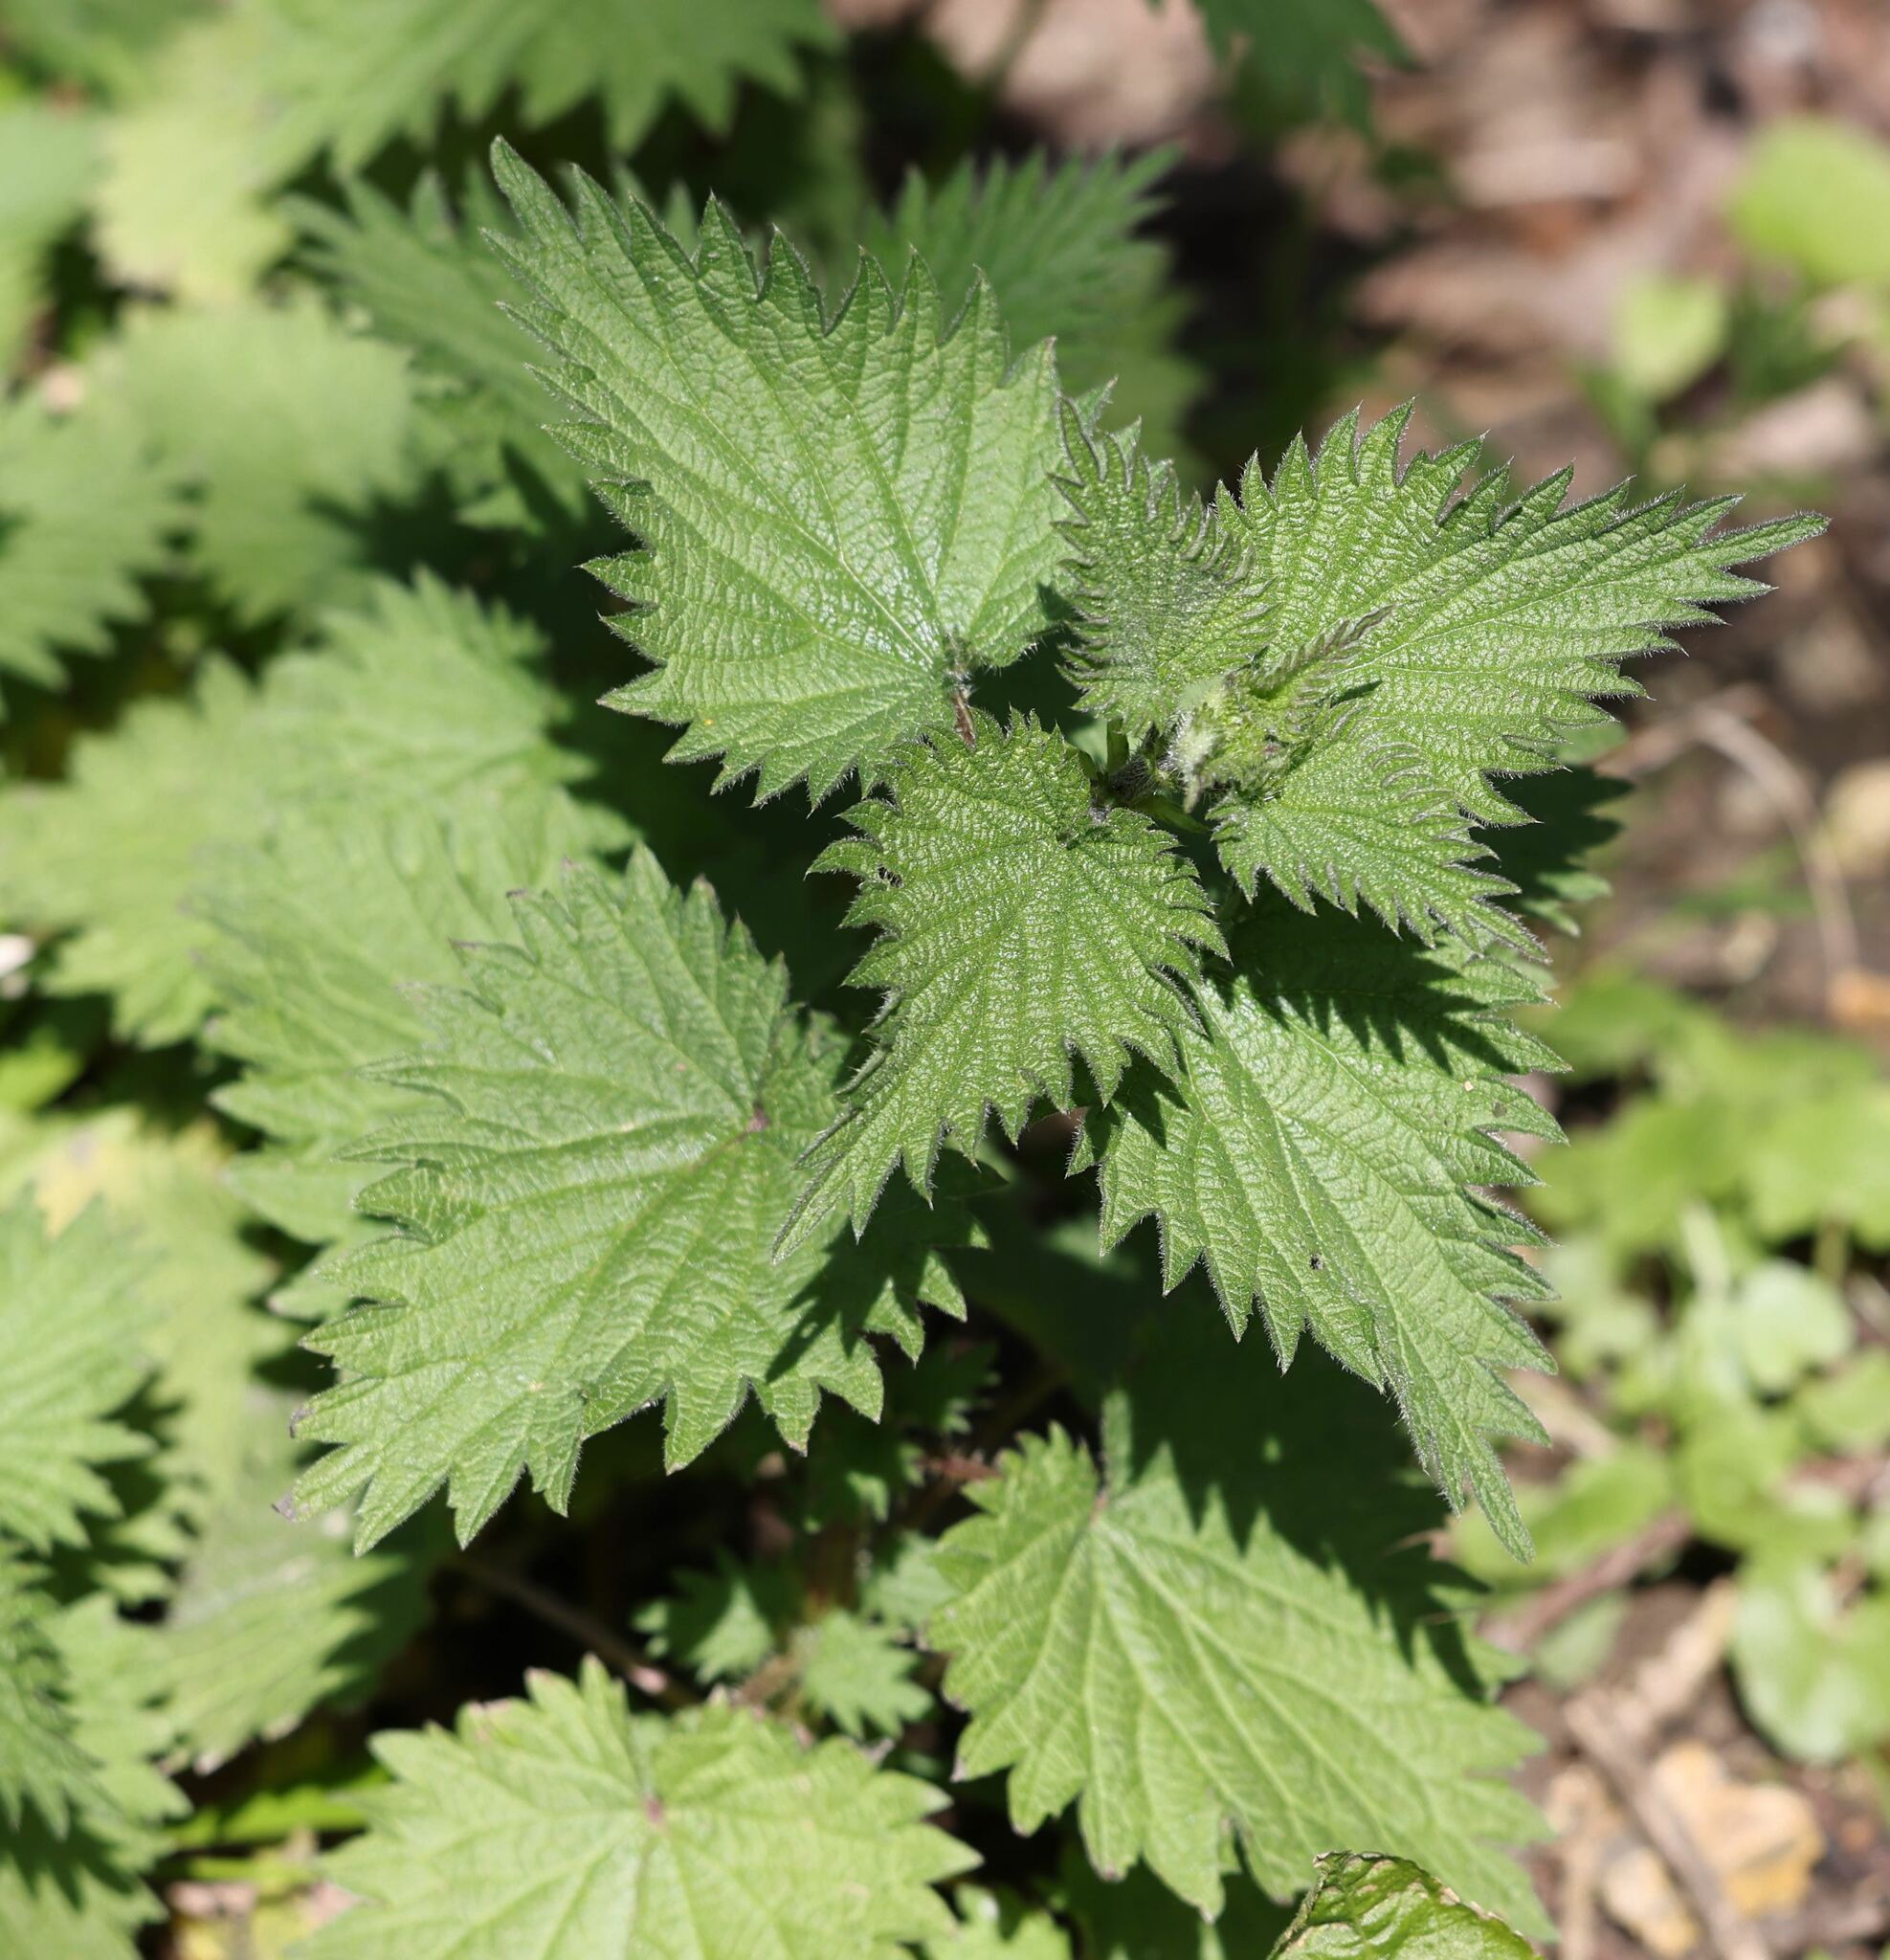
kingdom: Plantae
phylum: Tracheophyta
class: Magnoliopsida
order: Rosales
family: Urticaceae
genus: Urtica
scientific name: Urtica dioica
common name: Common nettle
